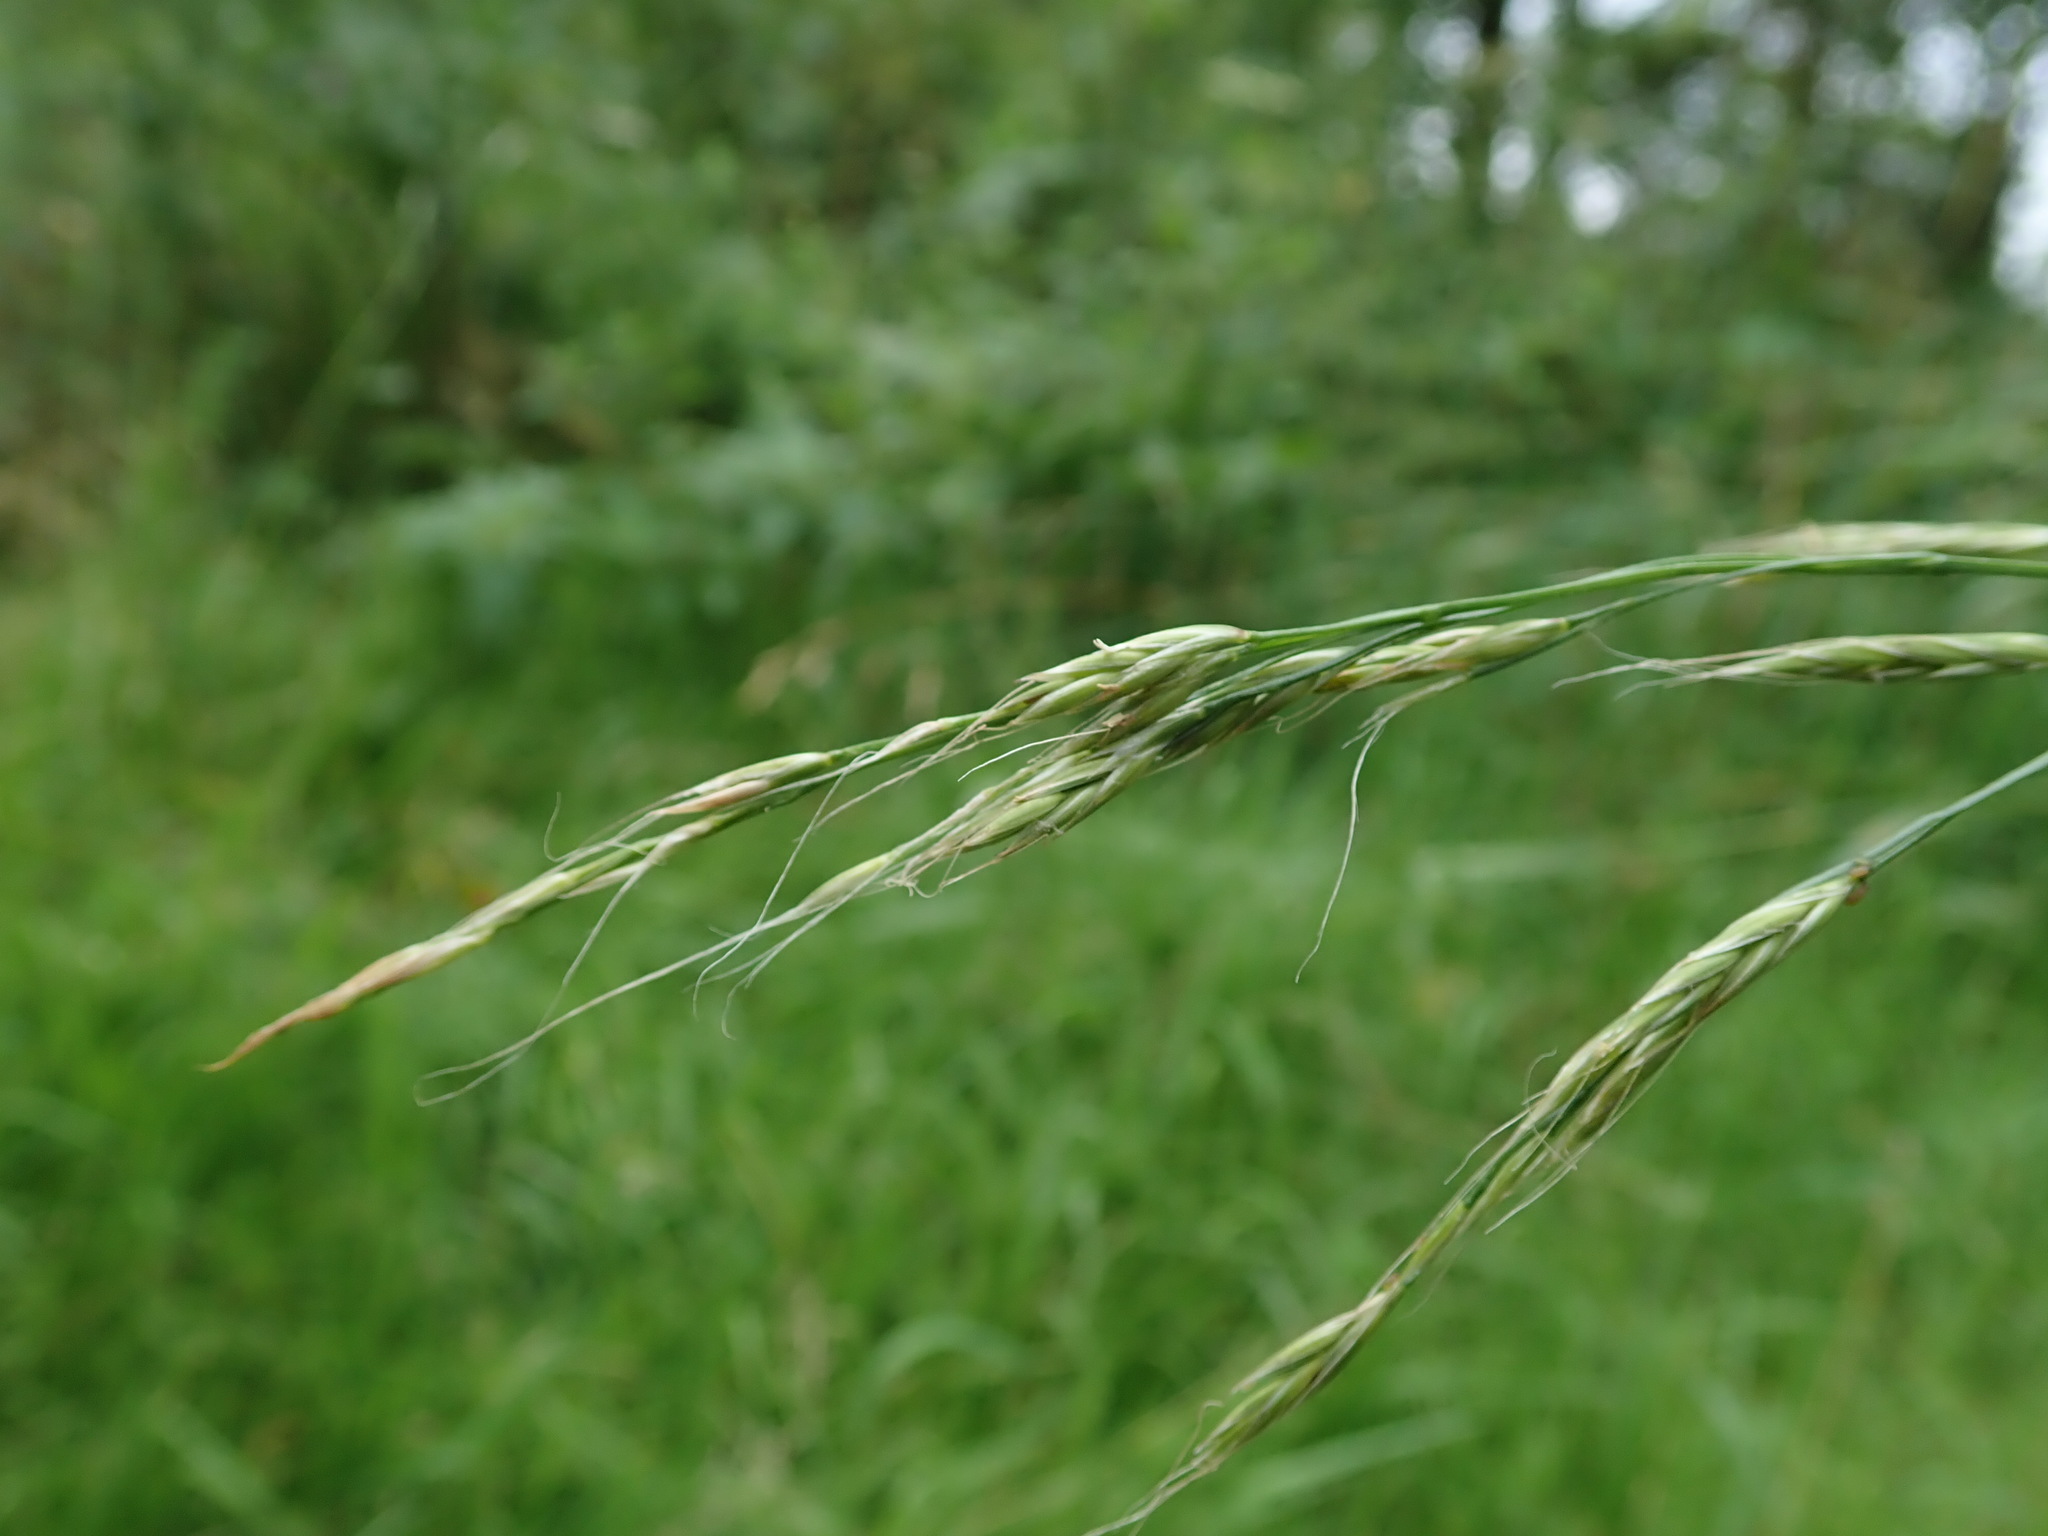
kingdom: Plantae
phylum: Tracheophyta
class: Liliopsida
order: Poales
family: Poaceae
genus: Lolium
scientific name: Lolium giganteum
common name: Giant fescue
